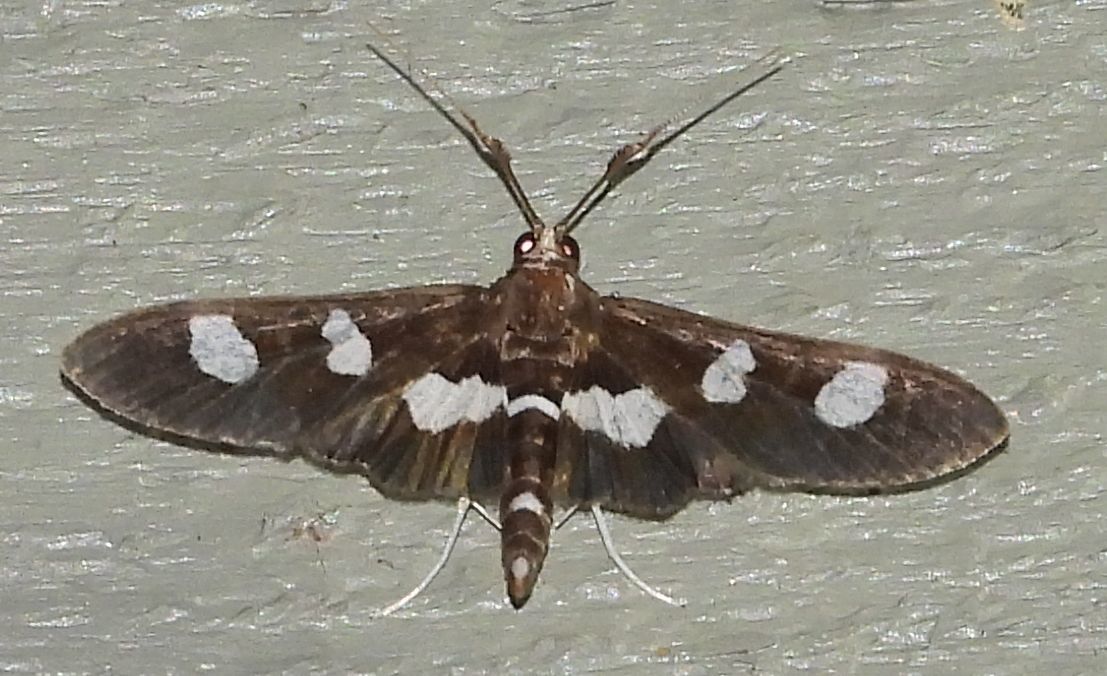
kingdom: Animalia
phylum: Arthropoda
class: Insecta
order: Lepidoptera
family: Crambidae
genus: Desmia
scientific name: Desmia
